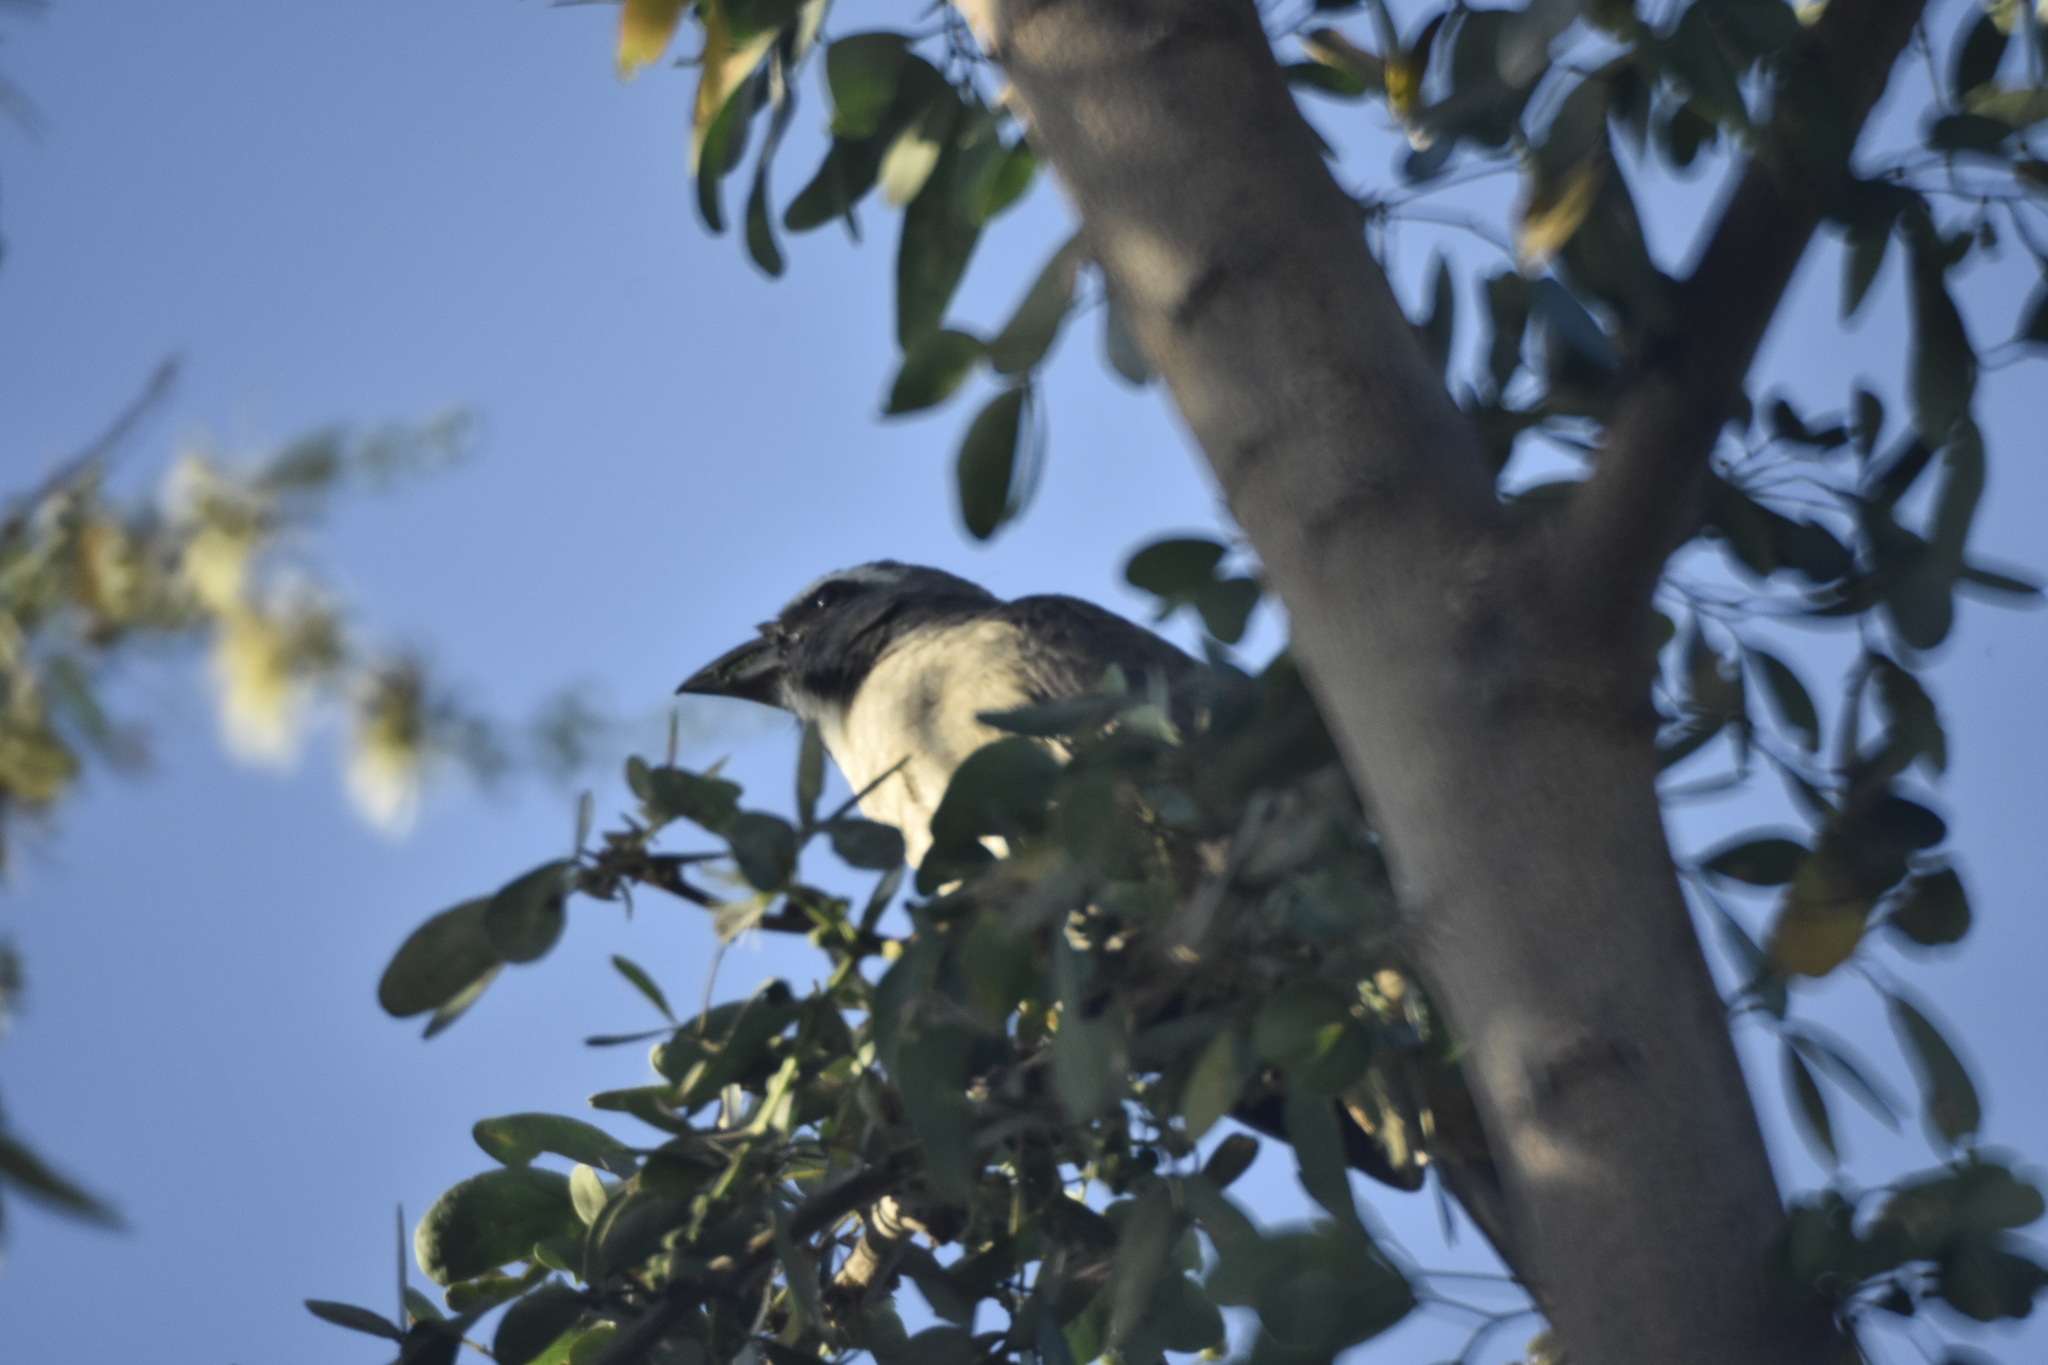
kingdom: Animalia
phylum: Chordata
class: Aves
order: Passeriformes
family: Thraupidae
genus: Saltator
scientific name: Saltator grandis
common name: Cinnamon-bellied saltator
